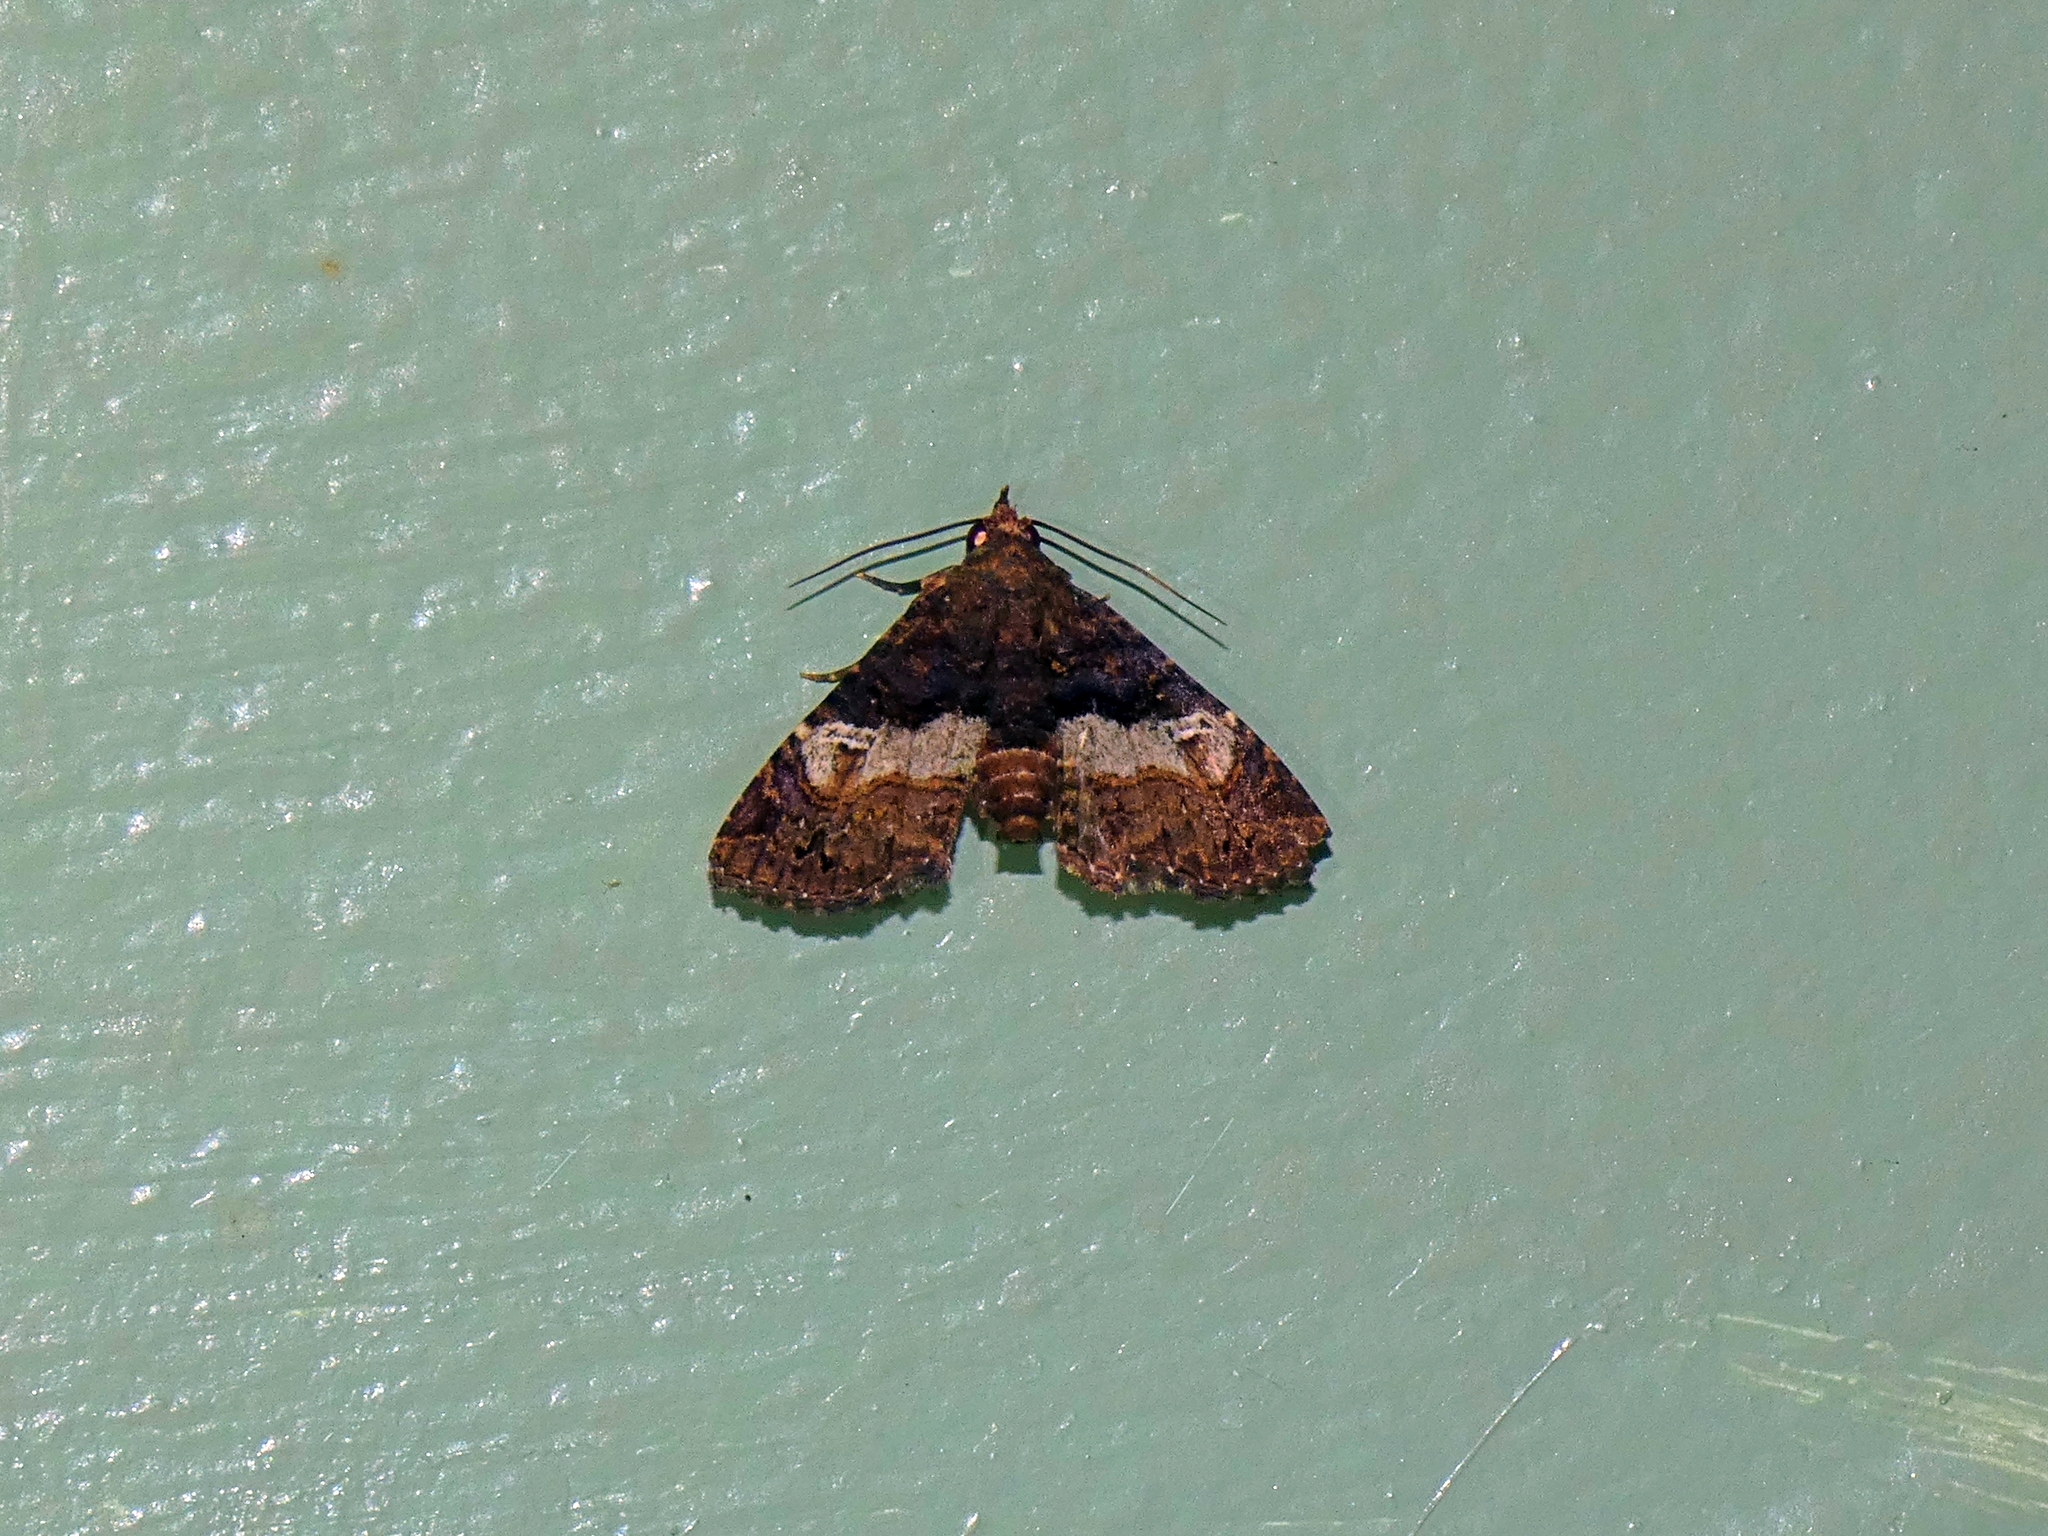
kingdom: Animalia
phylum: Arthropoda
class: Insecta
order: Lepidoptera
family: Euteliidae
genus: Targalla
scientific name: Targalla scelerata
